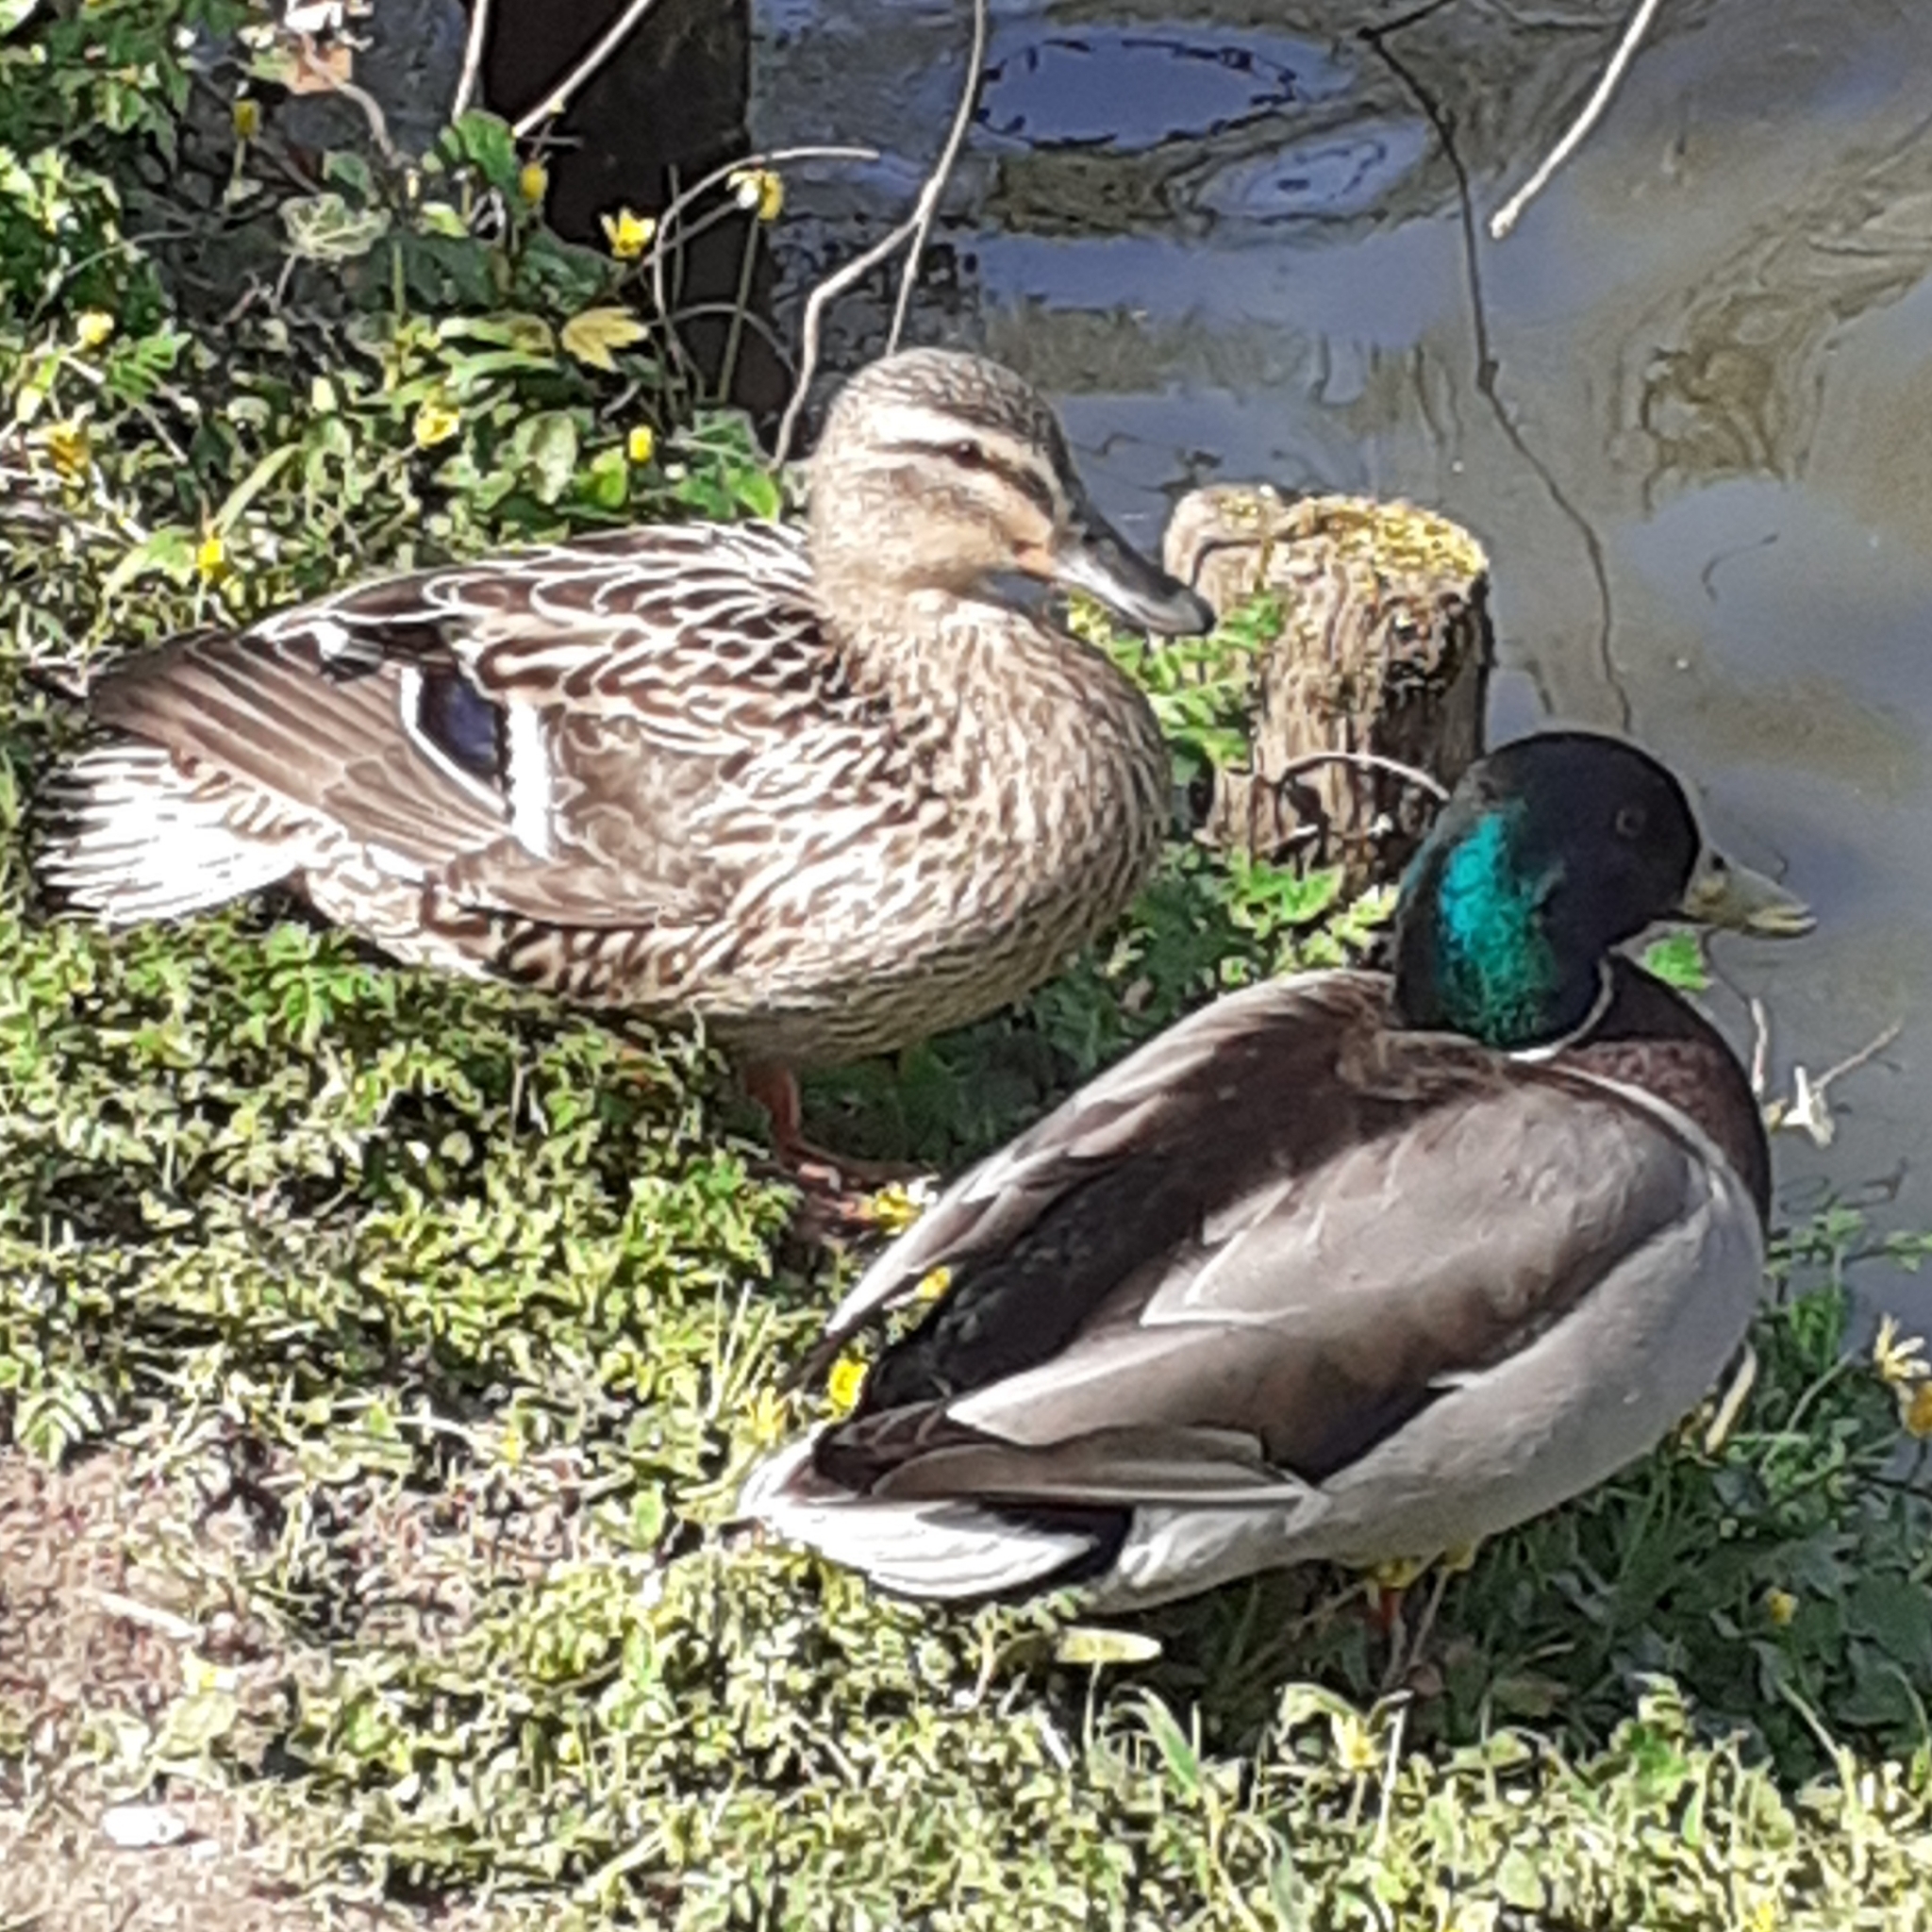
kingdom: Animalia
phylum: Chordata
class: Aves
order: Anseriformes
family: Anatidae
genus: Anas
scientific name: Anas platyrhynchos
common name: Mallard
